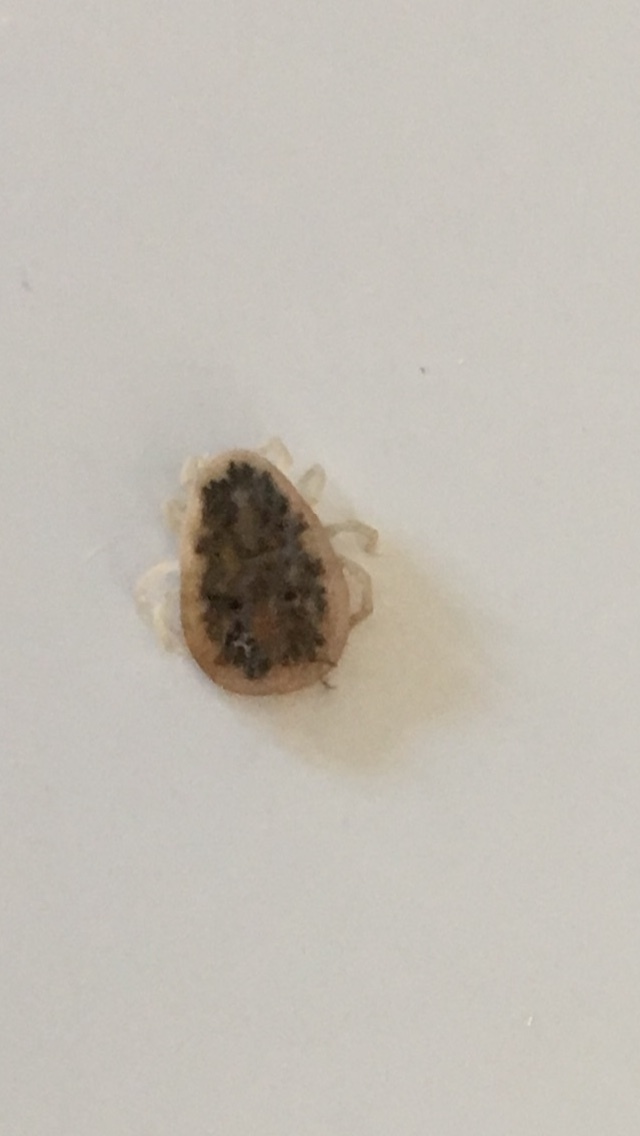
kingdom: Animalia
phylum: Arthropoda
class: Arachnida
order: Ixodida
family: Argasidae
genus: Argas
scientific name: Argas reflexus
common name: Pigeon tick
